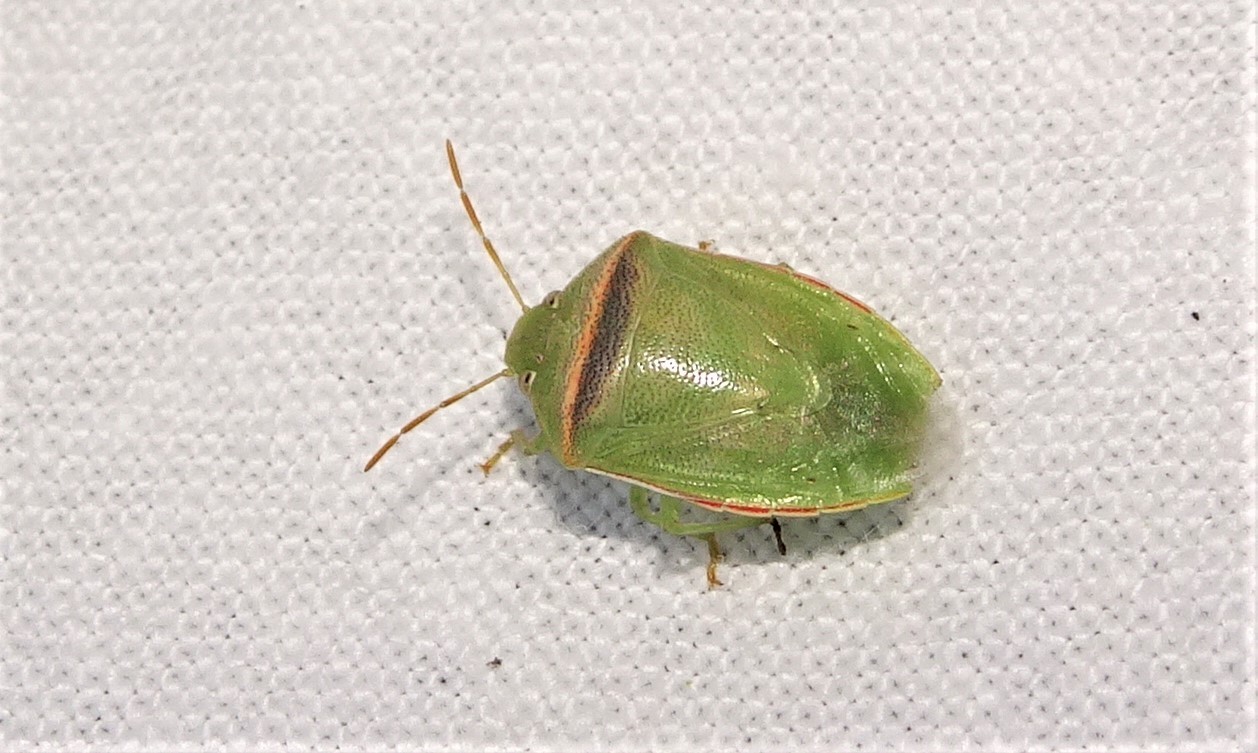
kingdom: Animalia
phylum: Arthropoda
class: Insecta
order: Hemiptera
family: Pentatomidae
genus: Piezodorus
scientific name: Piezodorus oceanicus
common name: Stink bug
